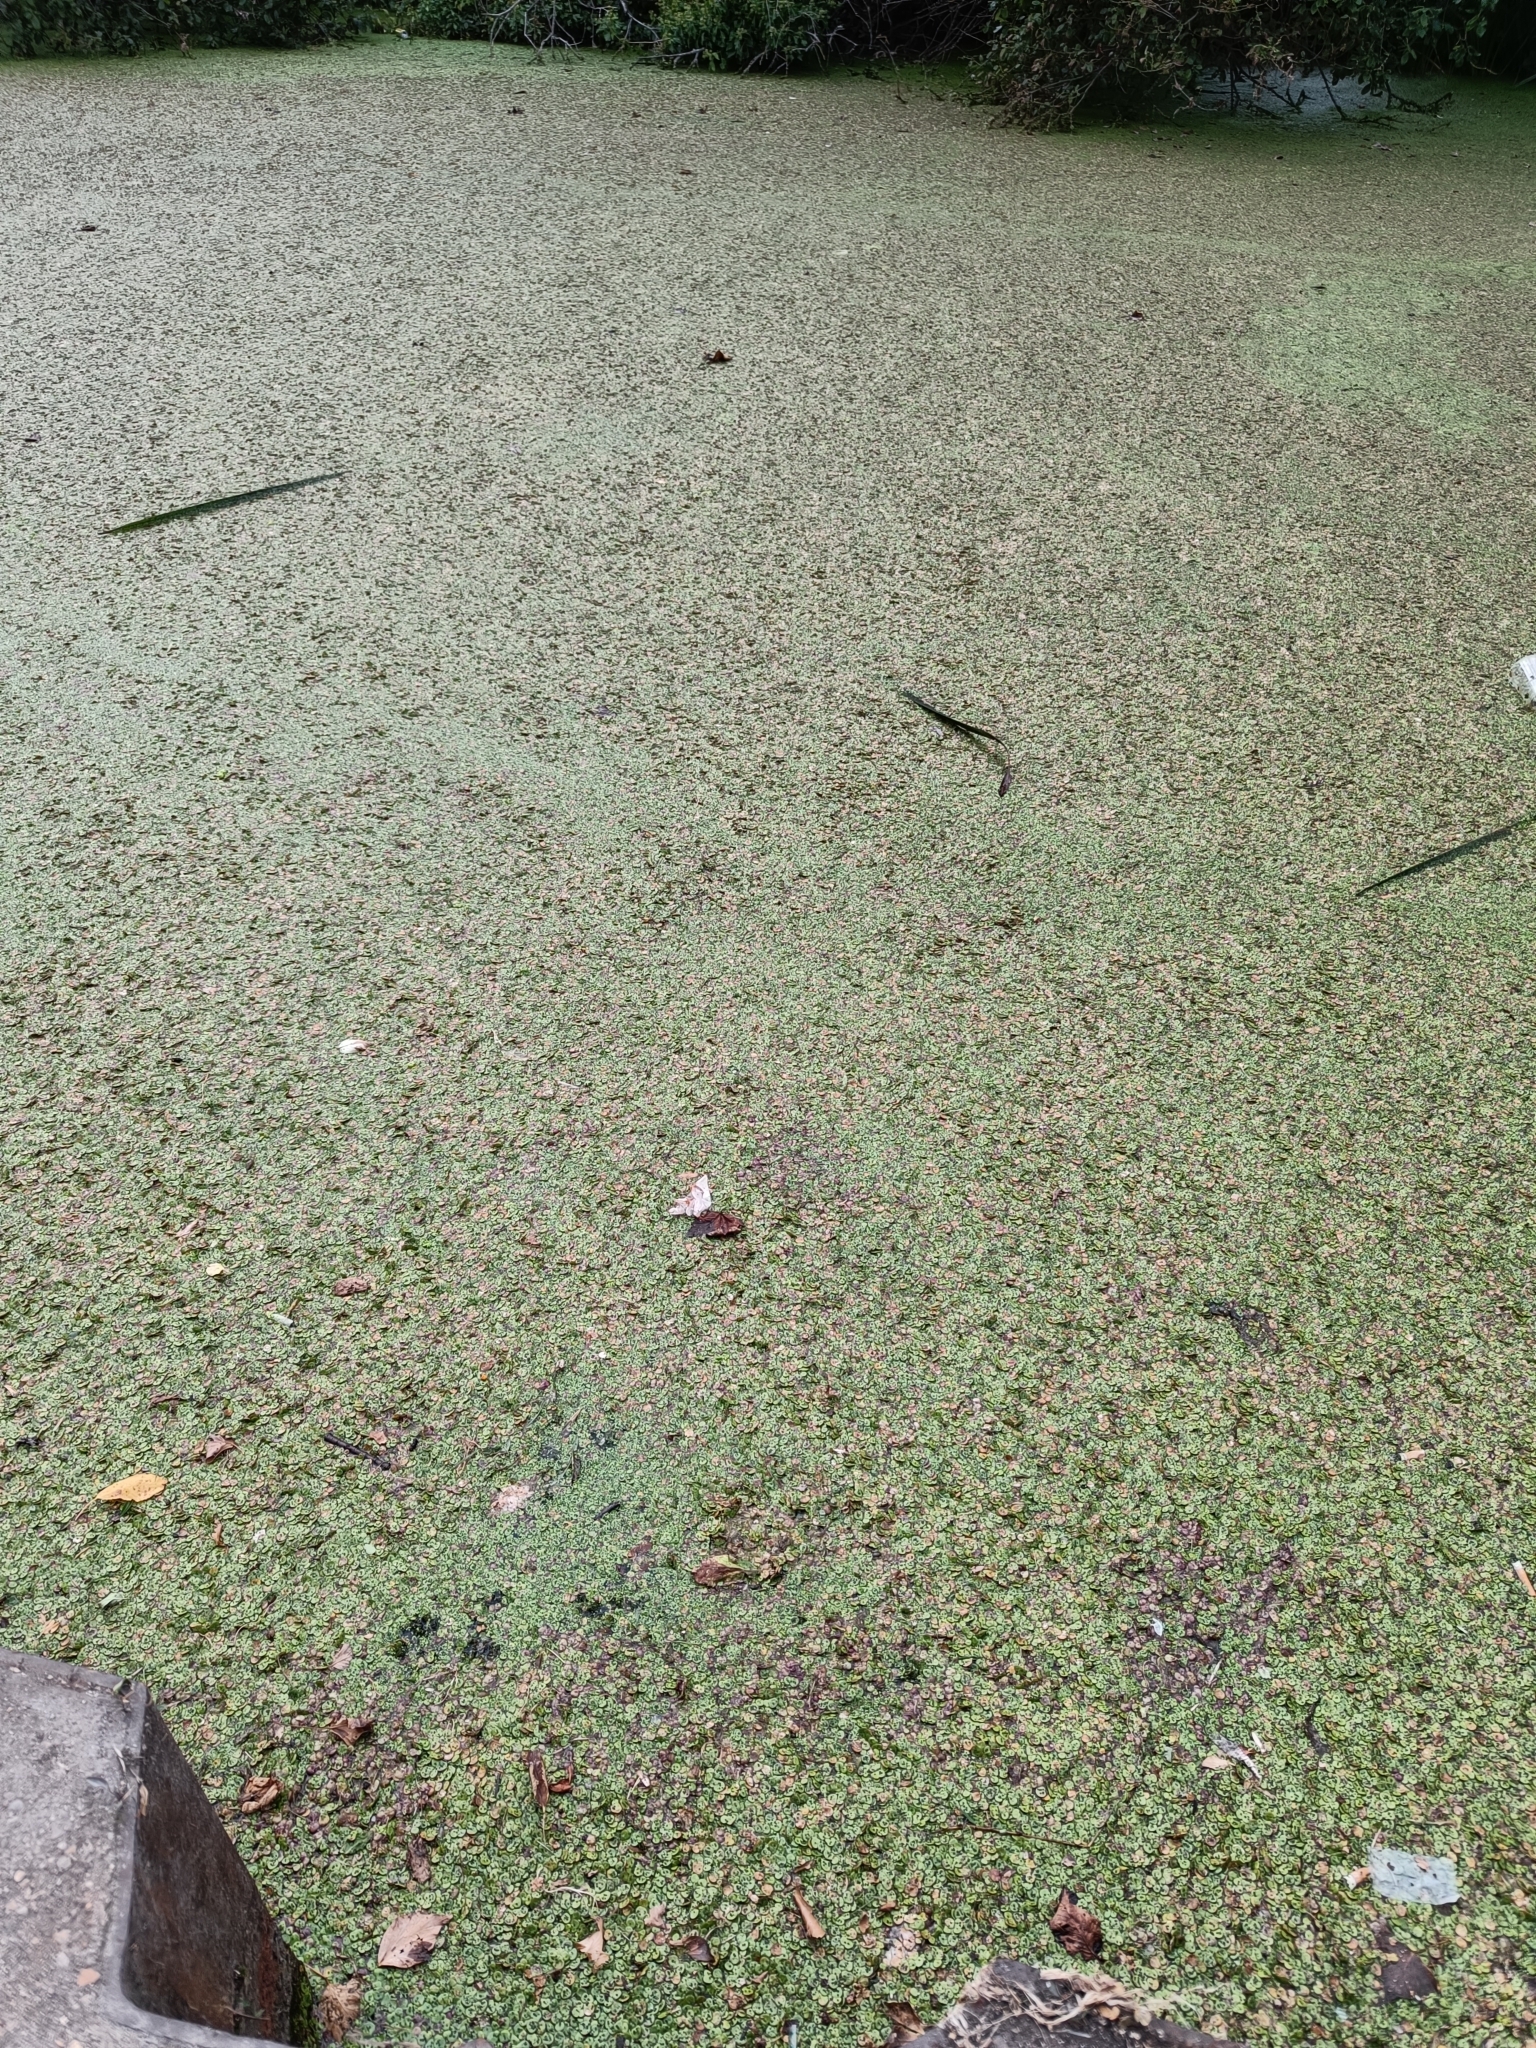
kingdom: Plantae
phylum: Tracheophyta
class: Liliopsida
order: Alismatales
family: Araceae
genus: Spirodela
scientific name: Spirodela polyrhiza
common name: Great duckweed
